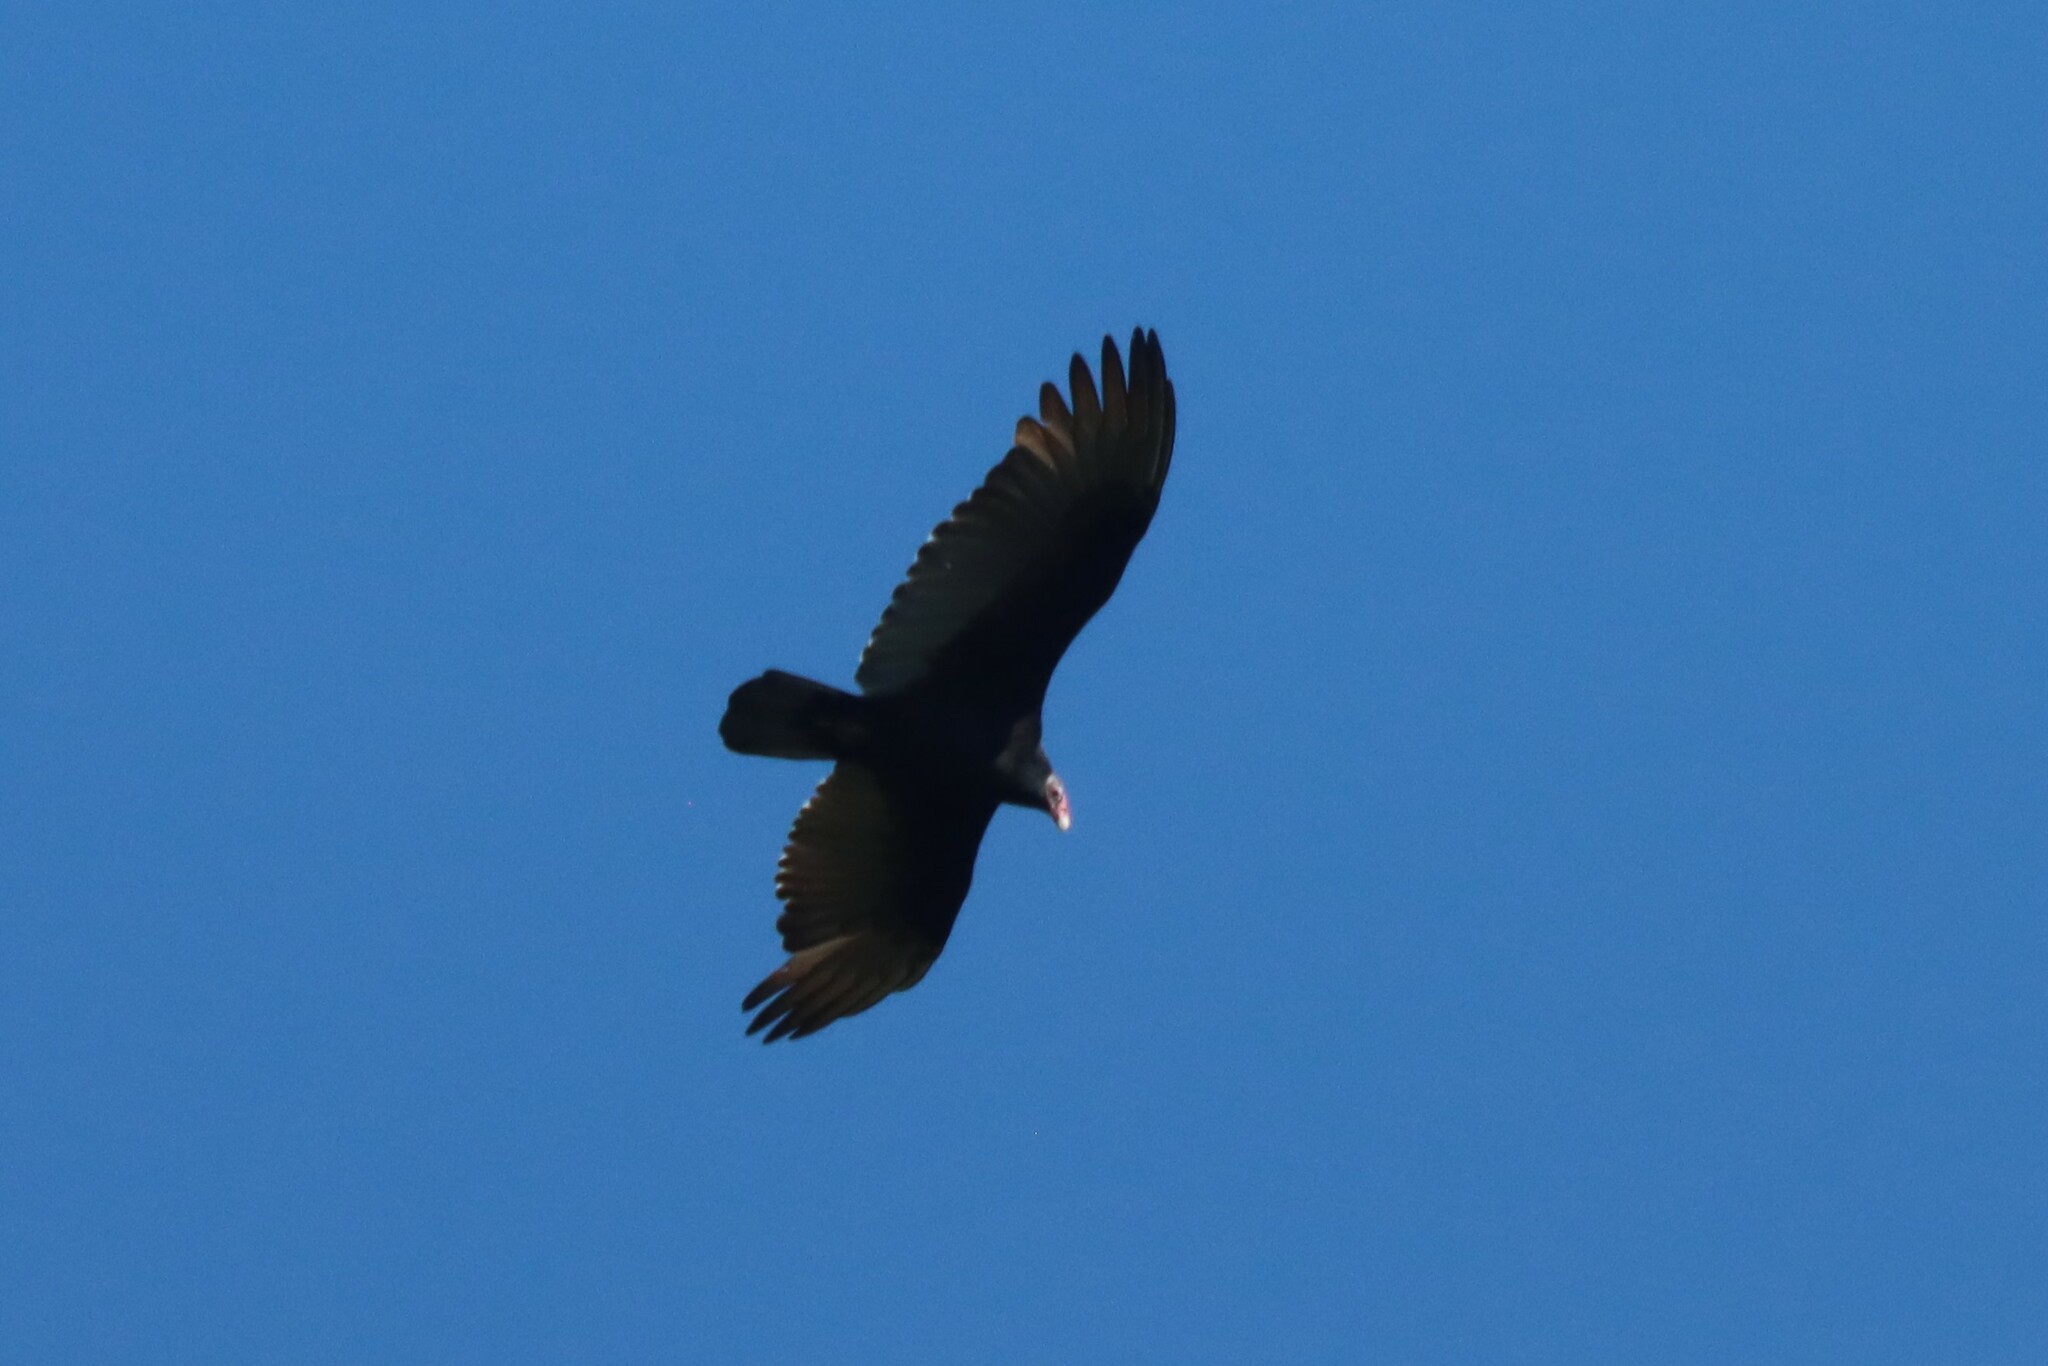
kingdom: Animalia
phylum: Chordata
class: Aves
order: Accipitriformes
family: Cathartidae
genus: Cathartes
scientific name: Cathartes aura
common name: Turkey vulture
